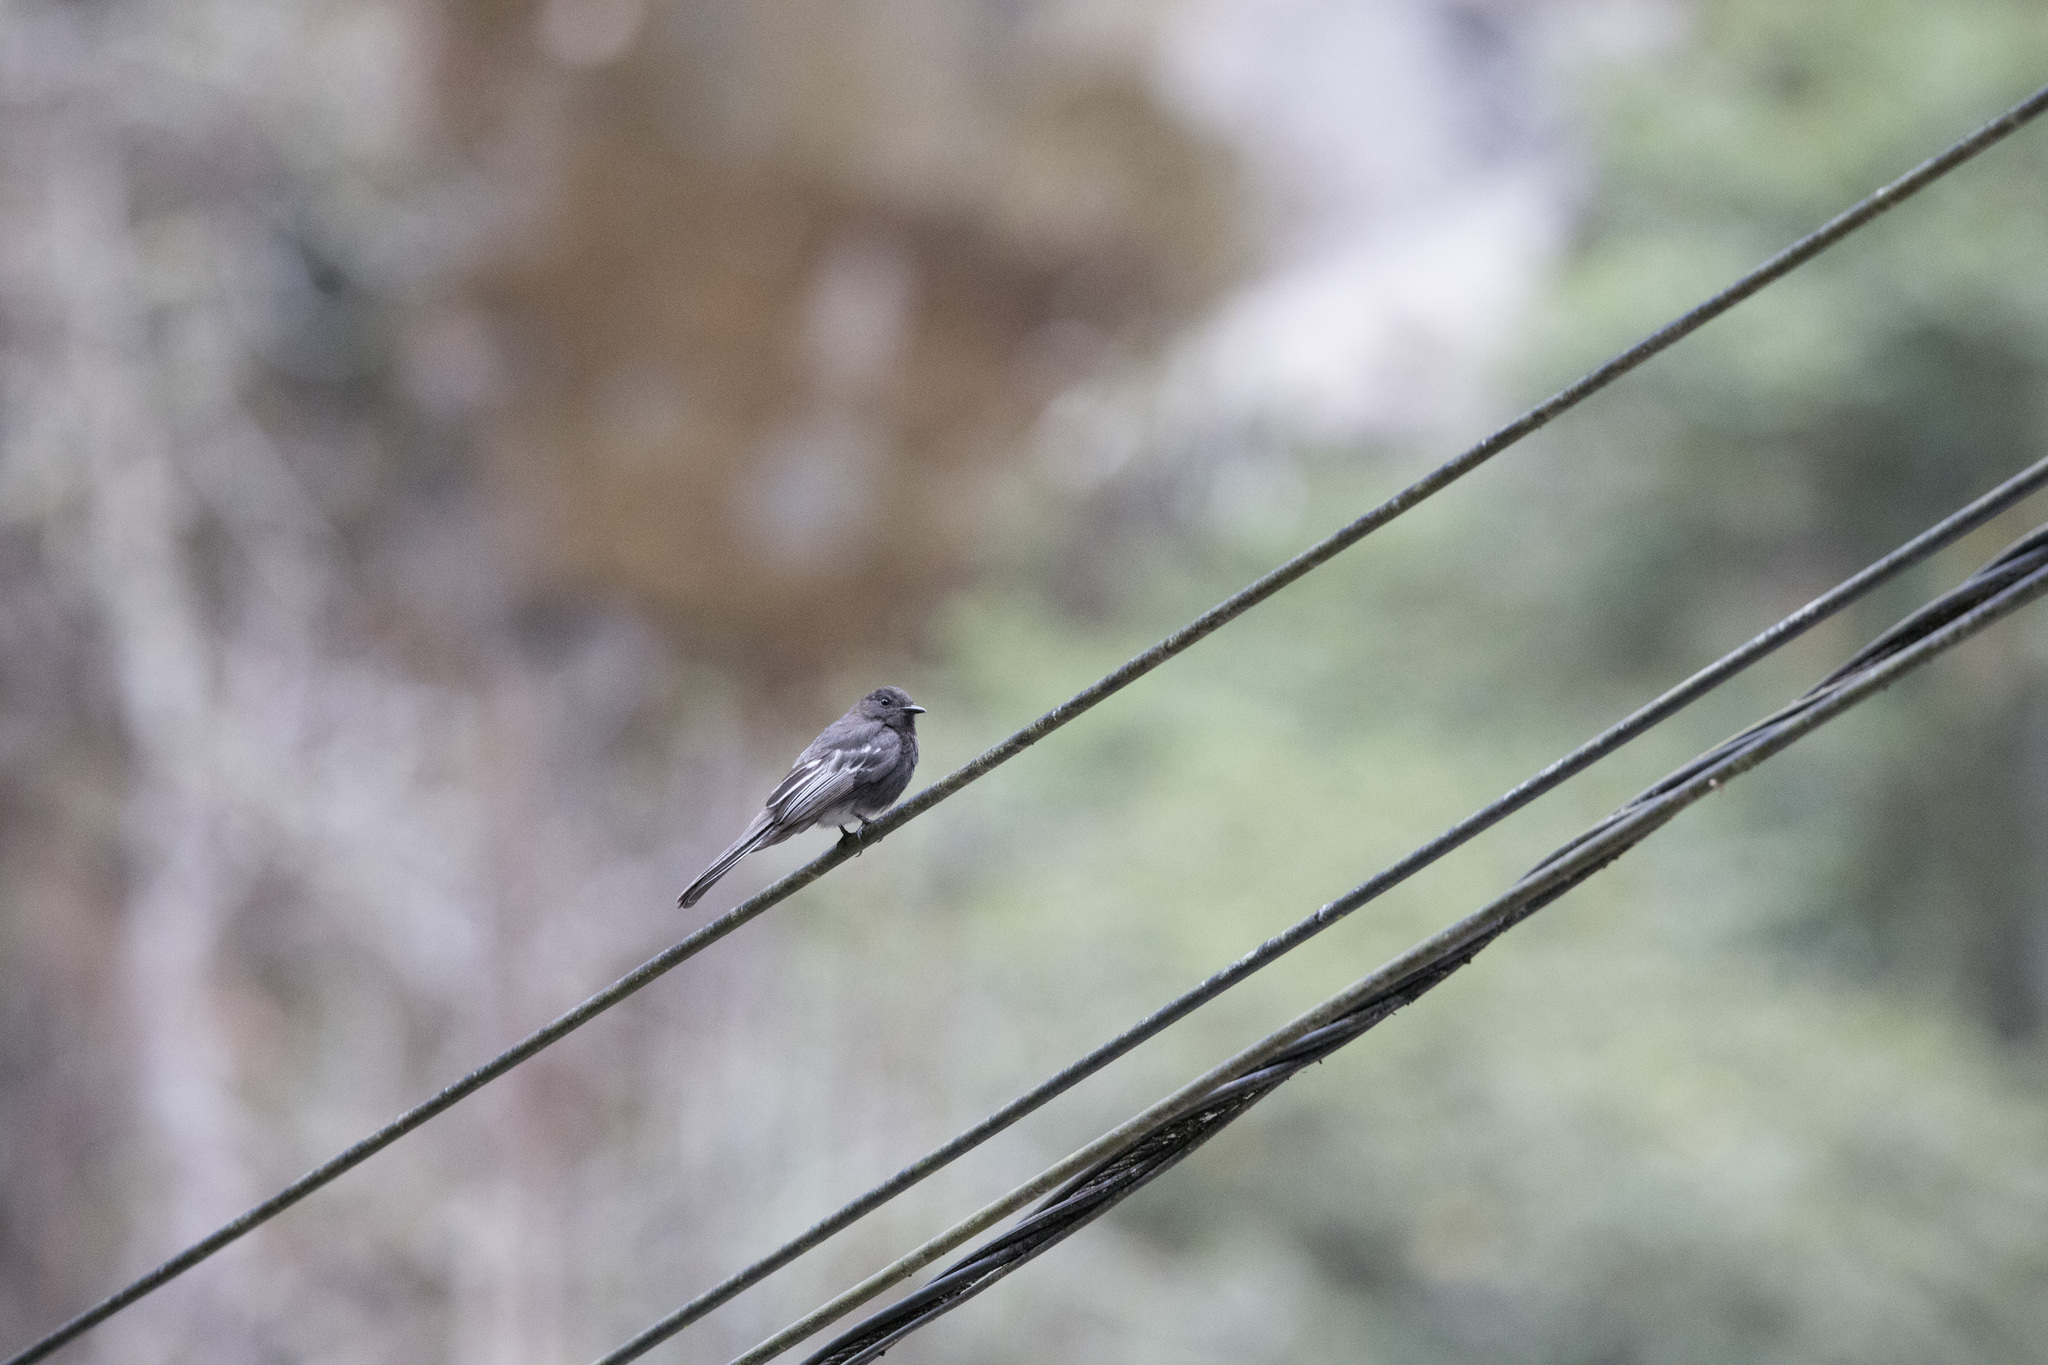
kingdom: Animalia
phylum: Chordata
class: Aves
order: Passeriformes
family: Tyrannidae
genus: Sayornis
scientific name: Sayornis nigricans
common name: Black phoebe
